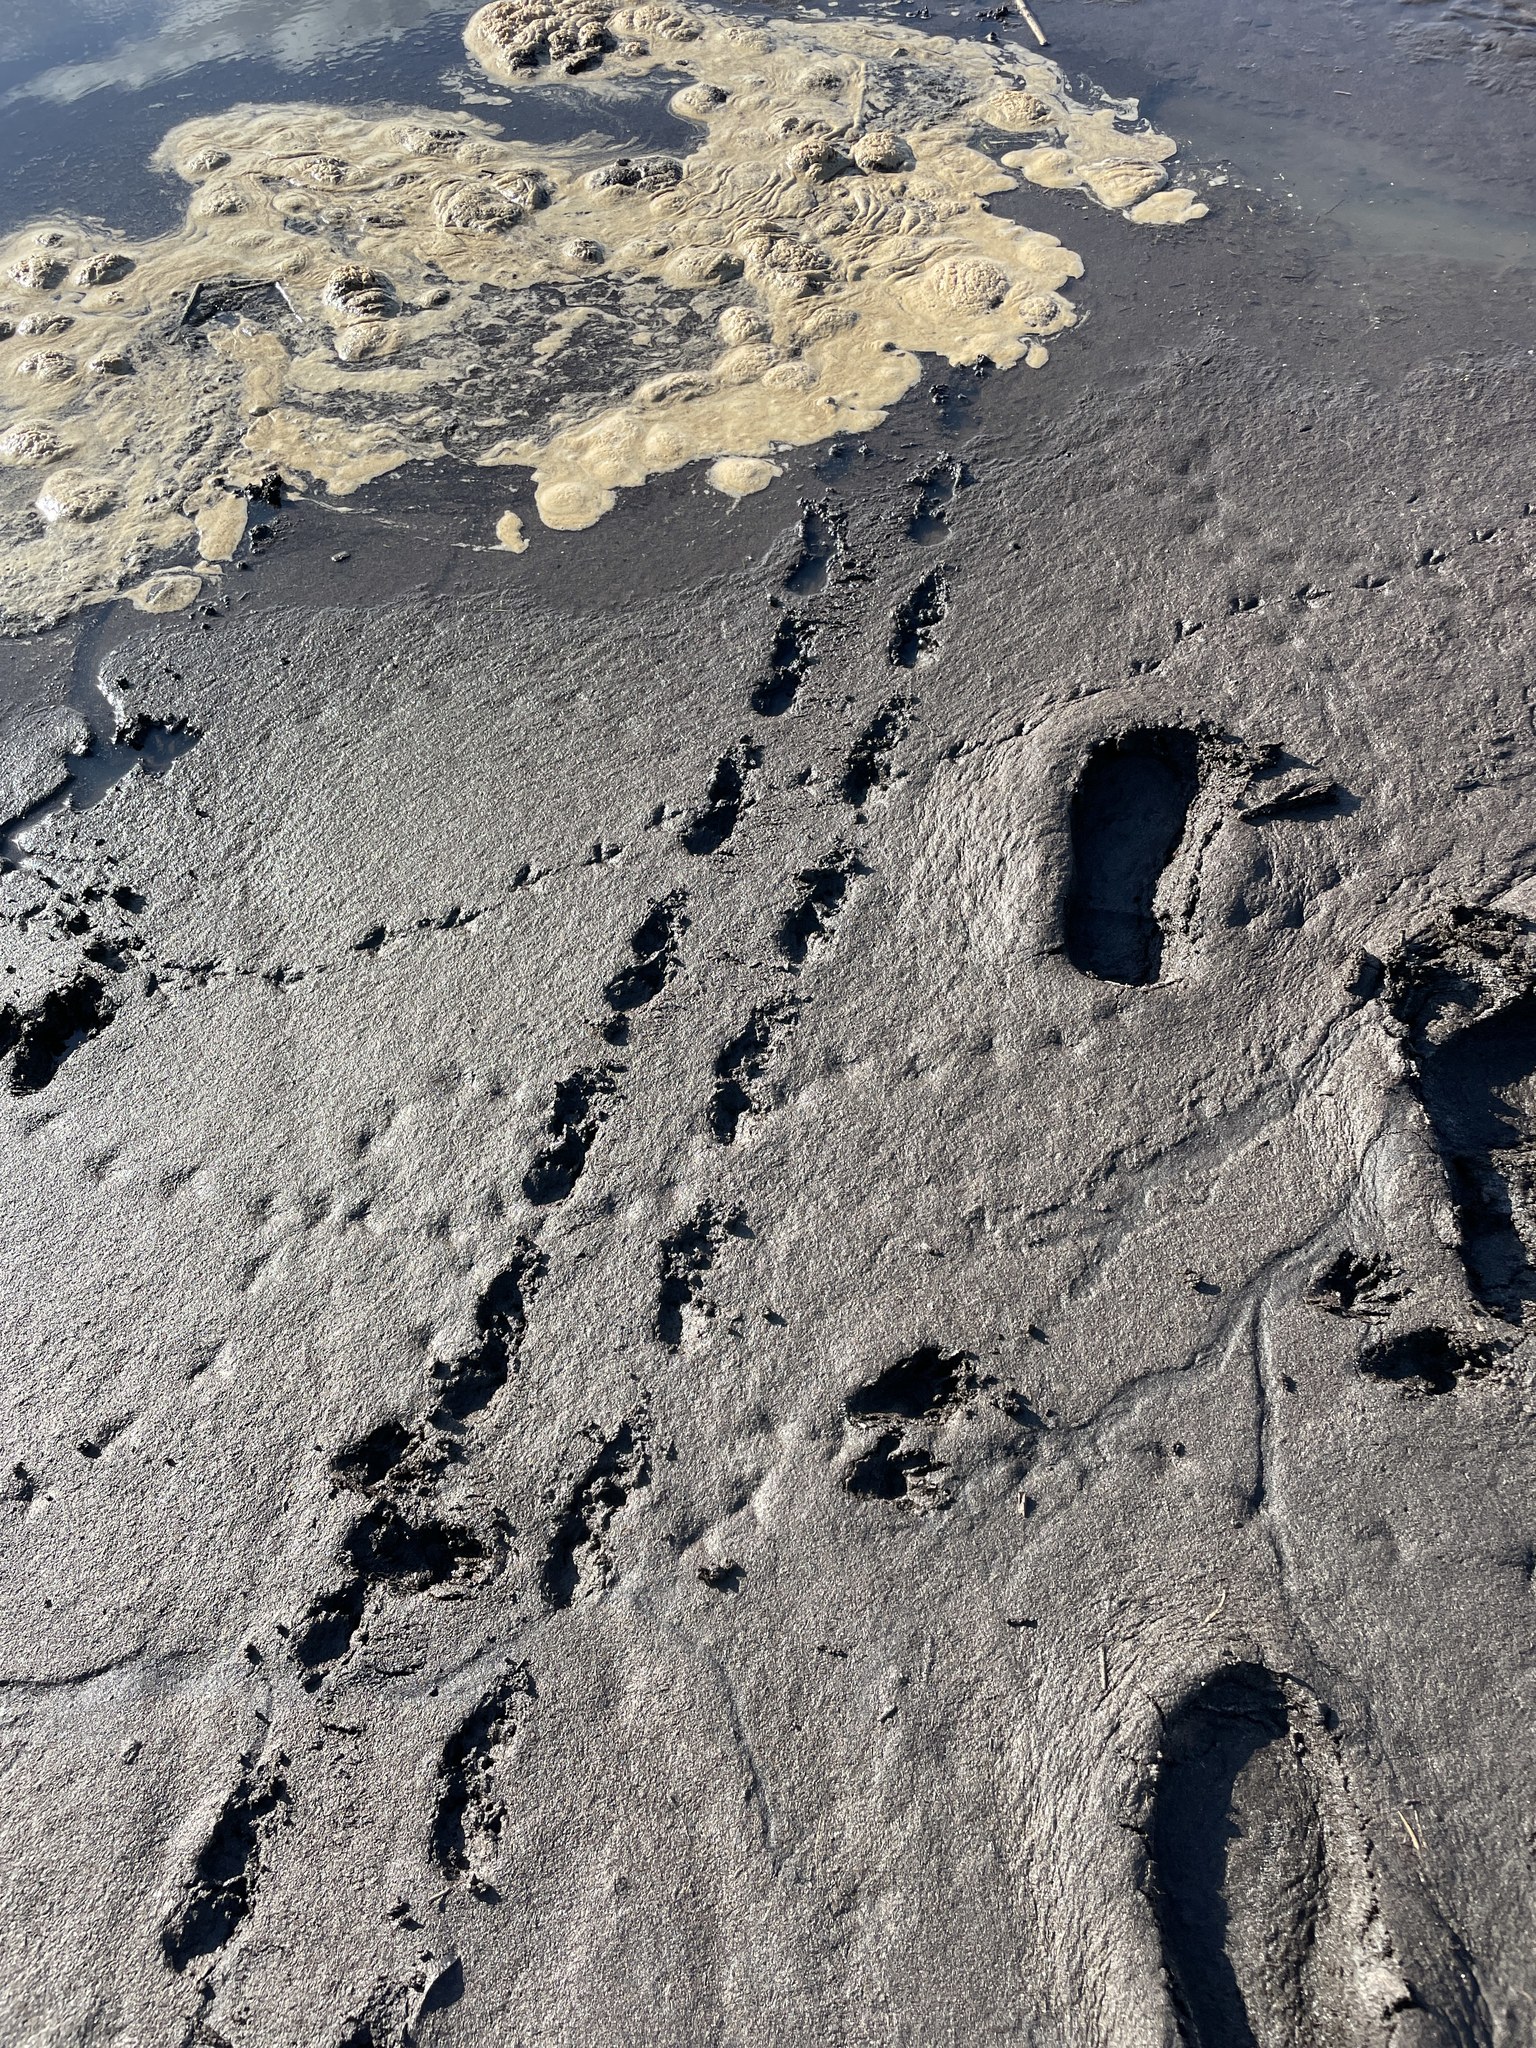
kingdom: Animalia
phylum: Chordata
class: Testudines
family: Emydidae
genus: Malaclemys
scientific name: Malaclemys terrapin
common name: Diamondback terrapin
